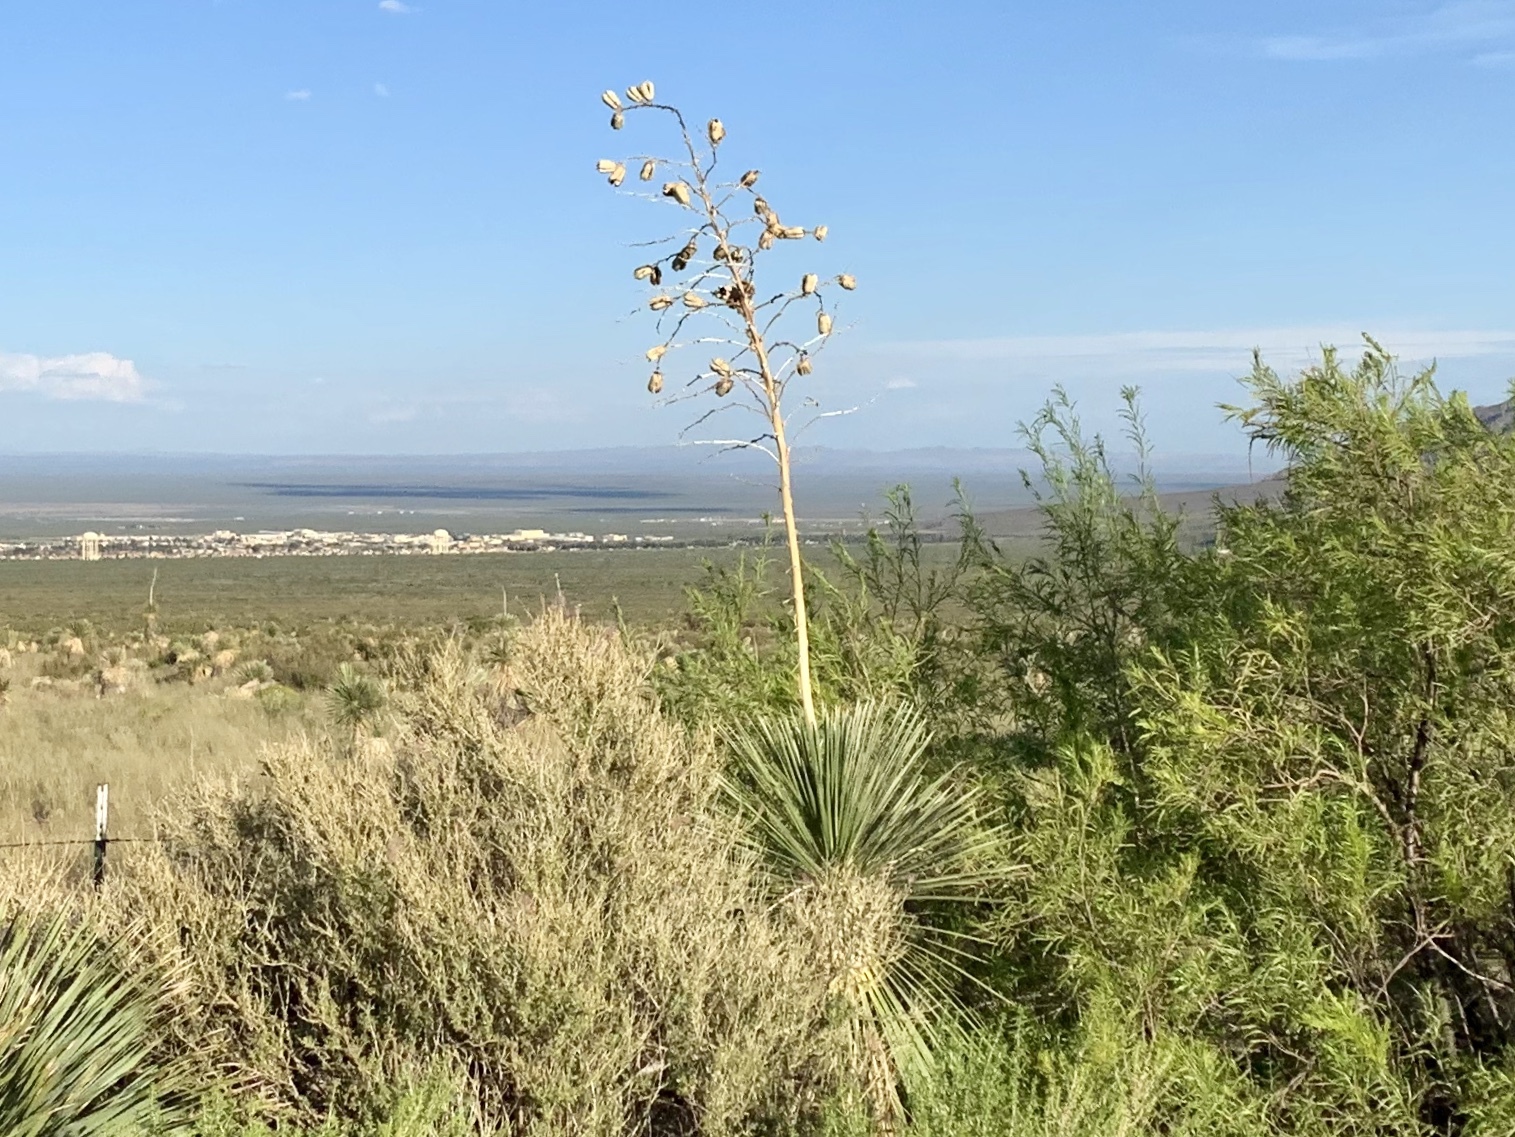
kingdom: Plantae
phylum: Tracheophyta
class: Liliopsida
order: Asparagales
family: Asparagaceae
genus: Yucca
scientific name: Yucca elata
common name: Palmella
